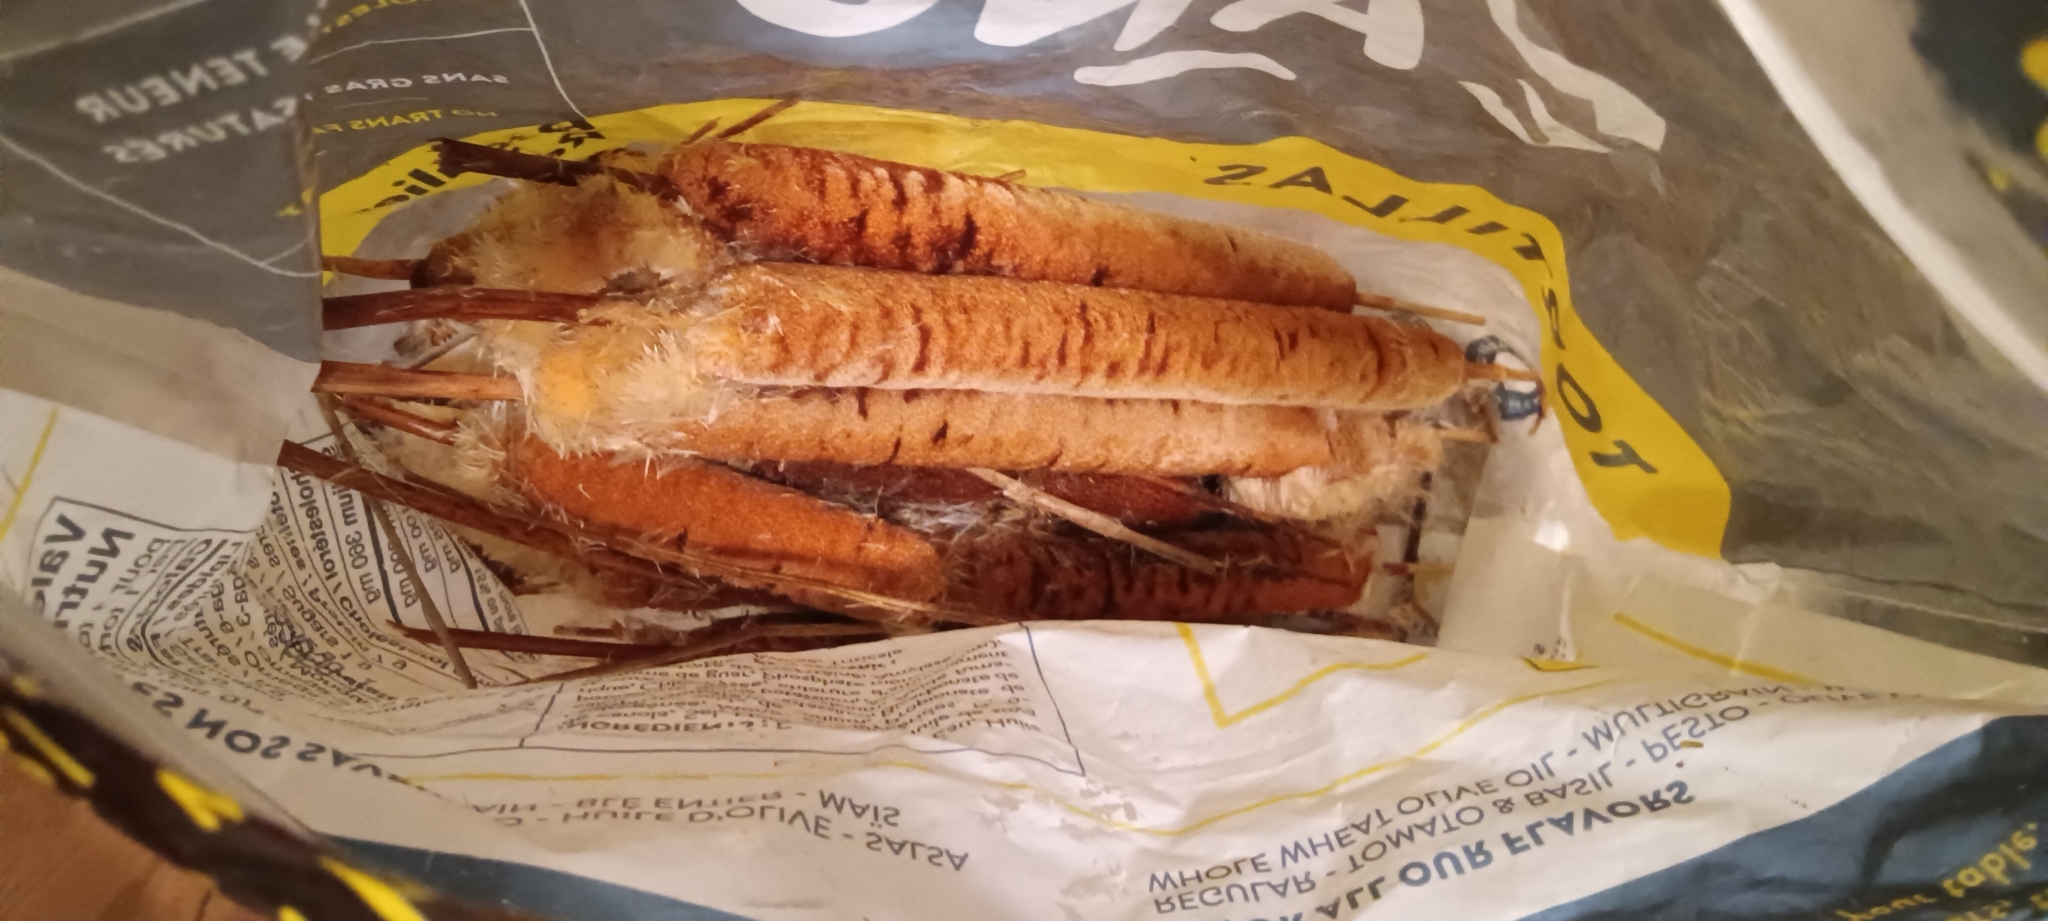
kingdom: Plantae
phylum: Tracheophyta
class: Liliopsida
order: Poales
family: Typhaceae
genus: Typha
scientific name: Typha angustifolia
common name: Lesser bulrush
